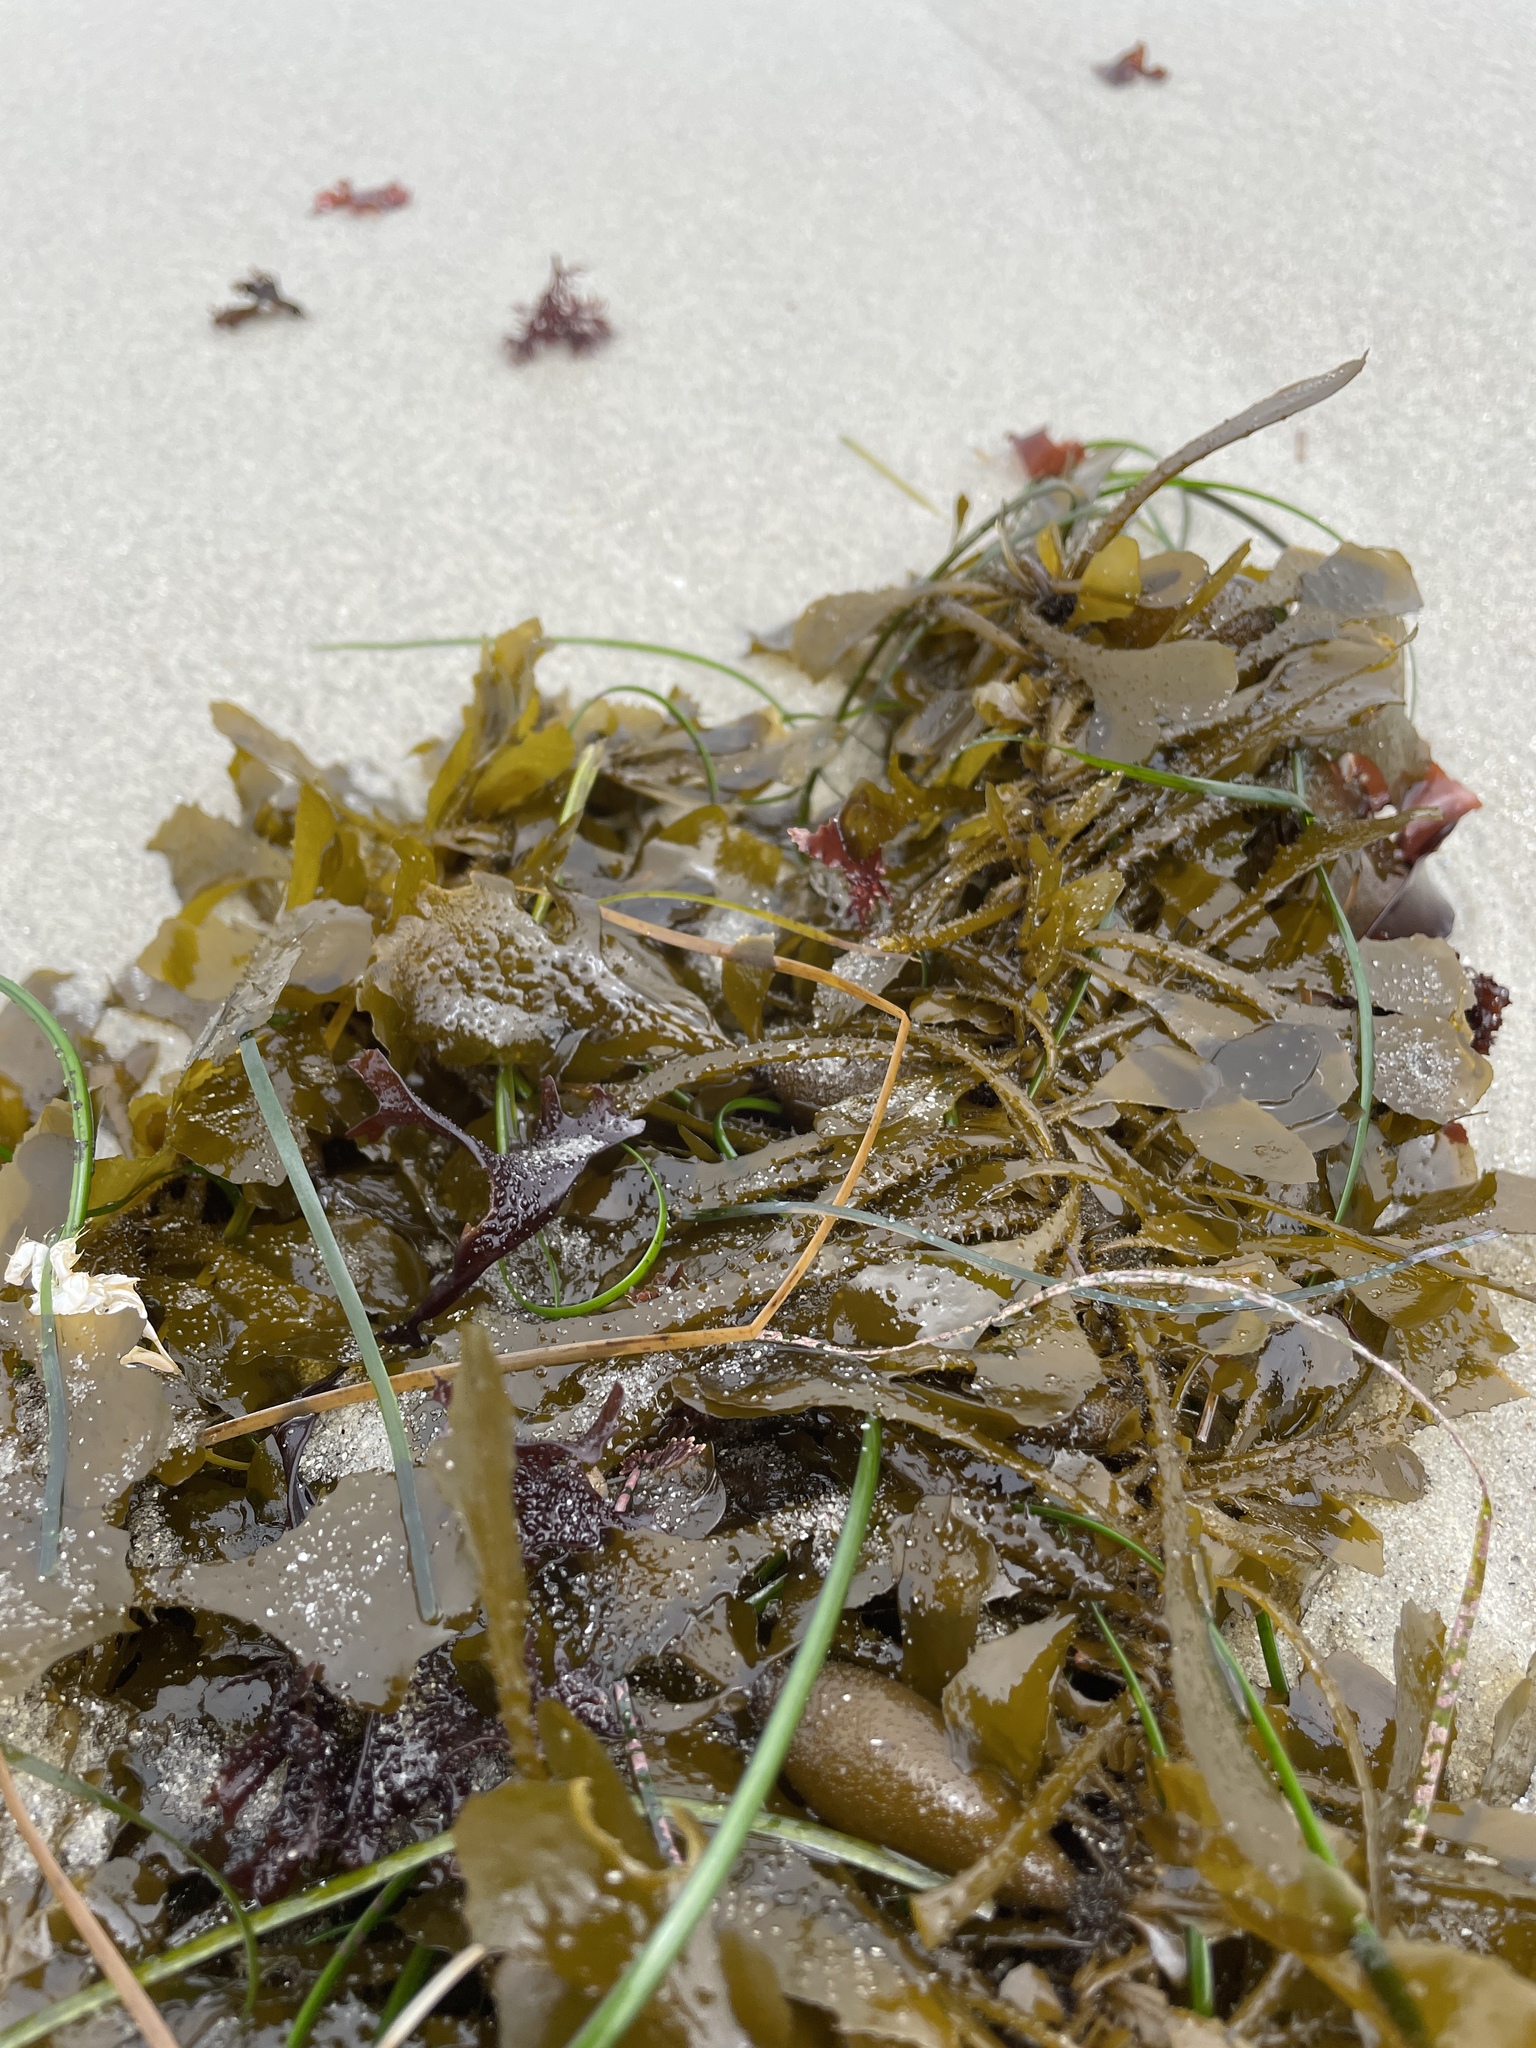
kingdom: Chromista
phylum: Ochrophyta
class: Phaeophyceae
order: Laminariales
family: Lessoniaceae
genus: Egregia
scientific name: Egregia menziesii
